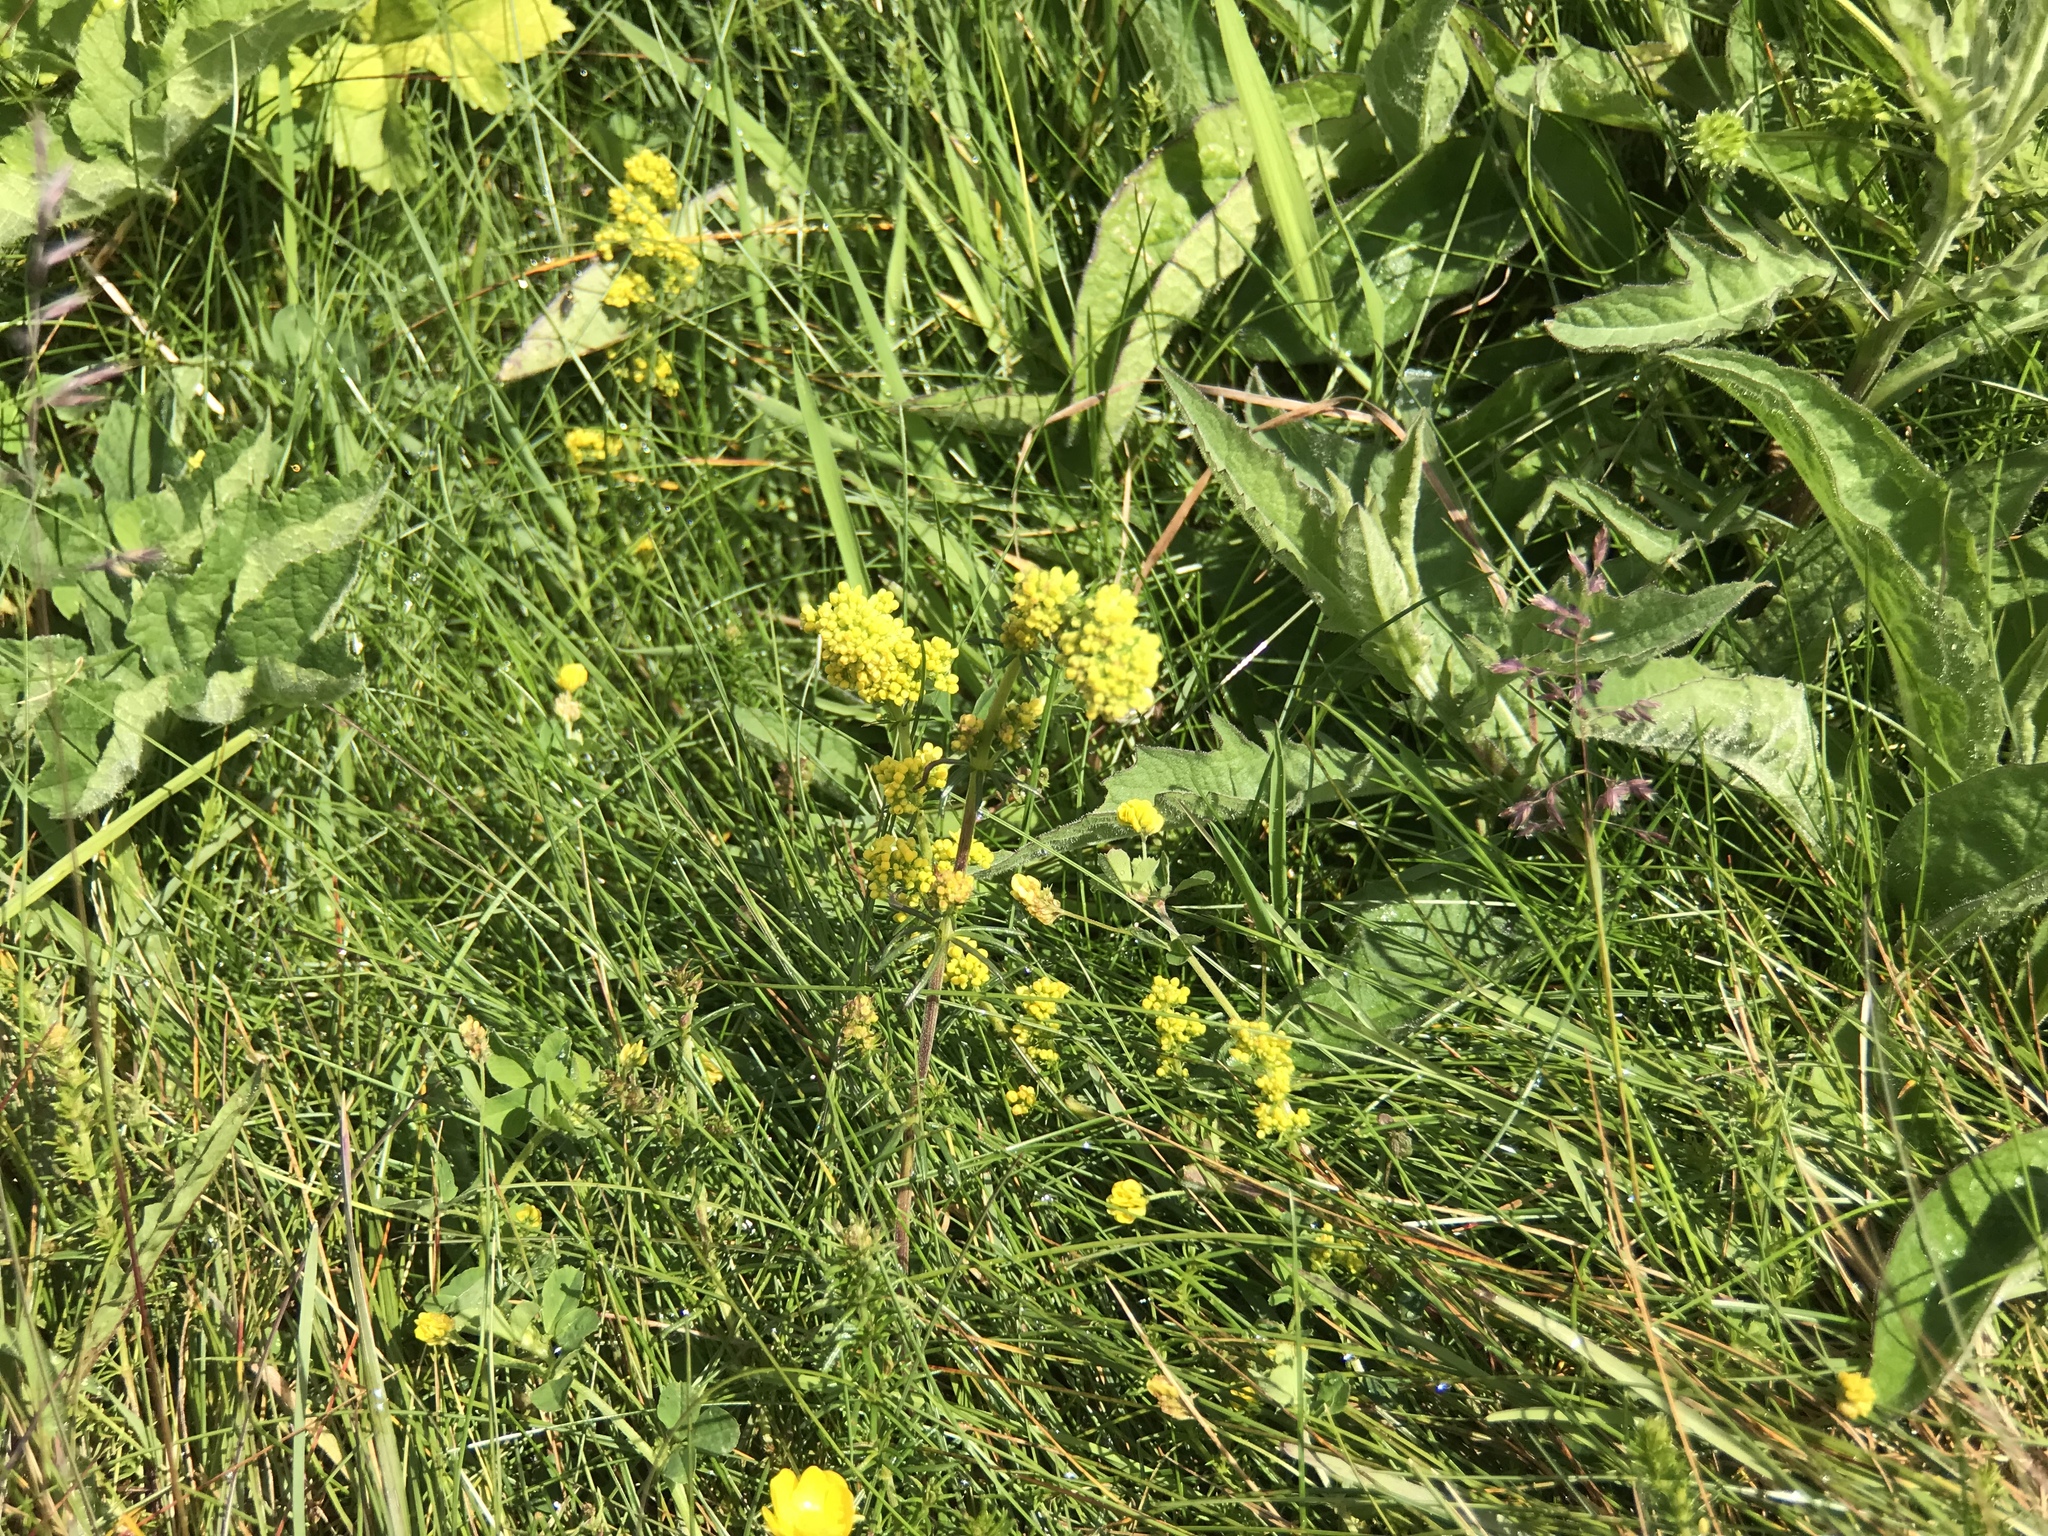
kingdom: Plantae
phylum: Tracheophyta
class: Magnoliopsida
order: Gentianales
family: Rubiaceae
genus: Galium
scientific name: Galium verum
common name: Lady's bedstraw
